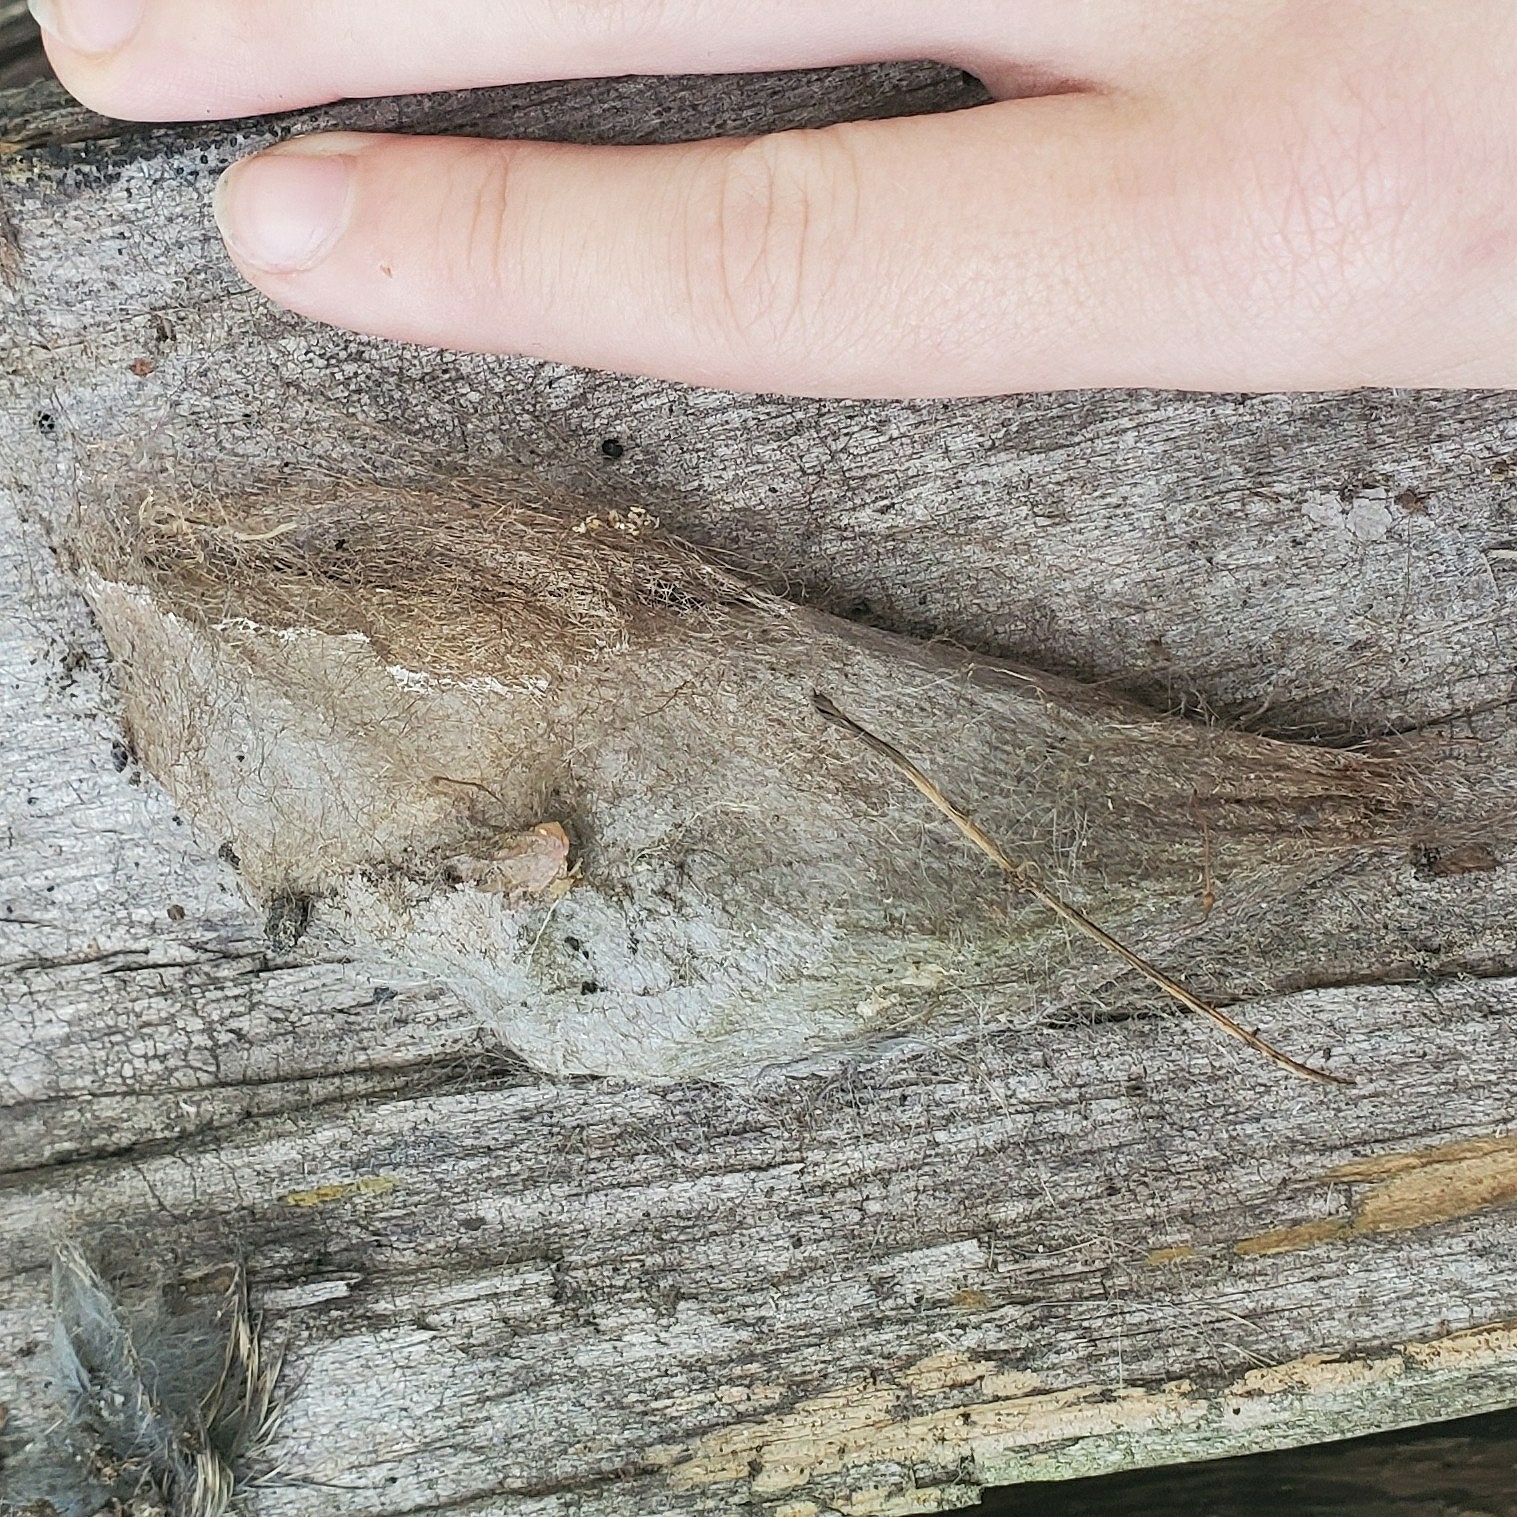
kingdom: Animalia
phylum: Arthropoda
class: Insecta
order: Lepidoptera
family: Saturniidae
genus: Hyalophora
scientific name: Hyalophora cecropia
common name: Cecropia silkmoth
